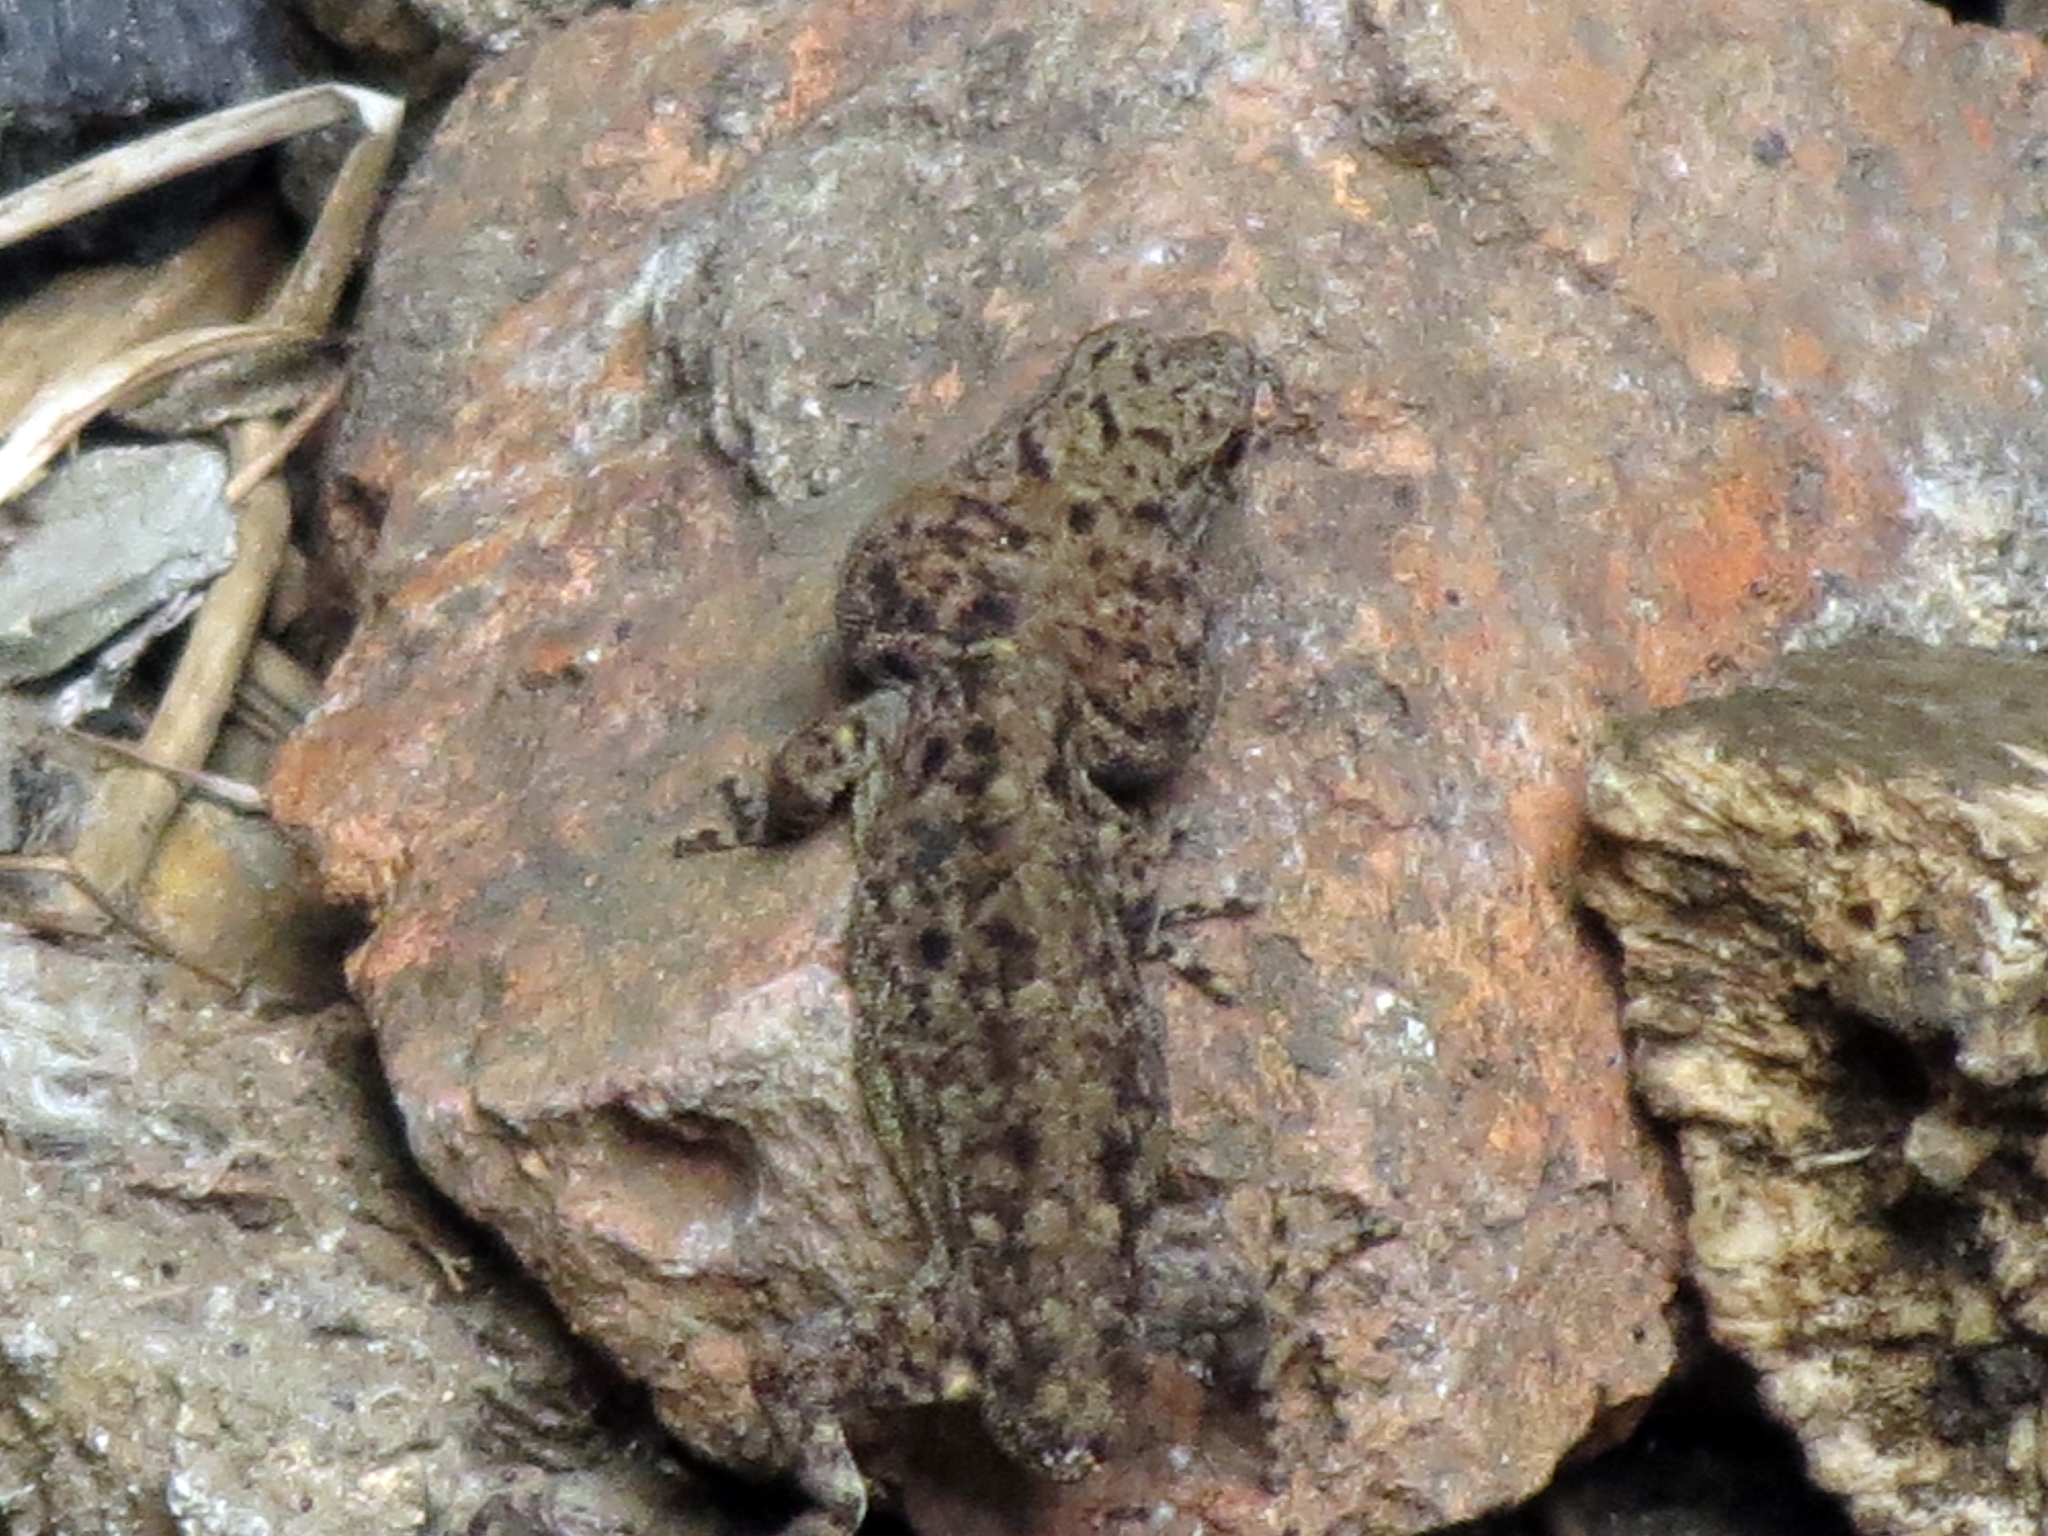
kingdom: Animalia
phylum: Chordata
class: Squamata
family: Sphaerodactylidae
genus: Gonatodes
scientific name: Gonatodes albogularis
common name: Yellow-headed gecko
